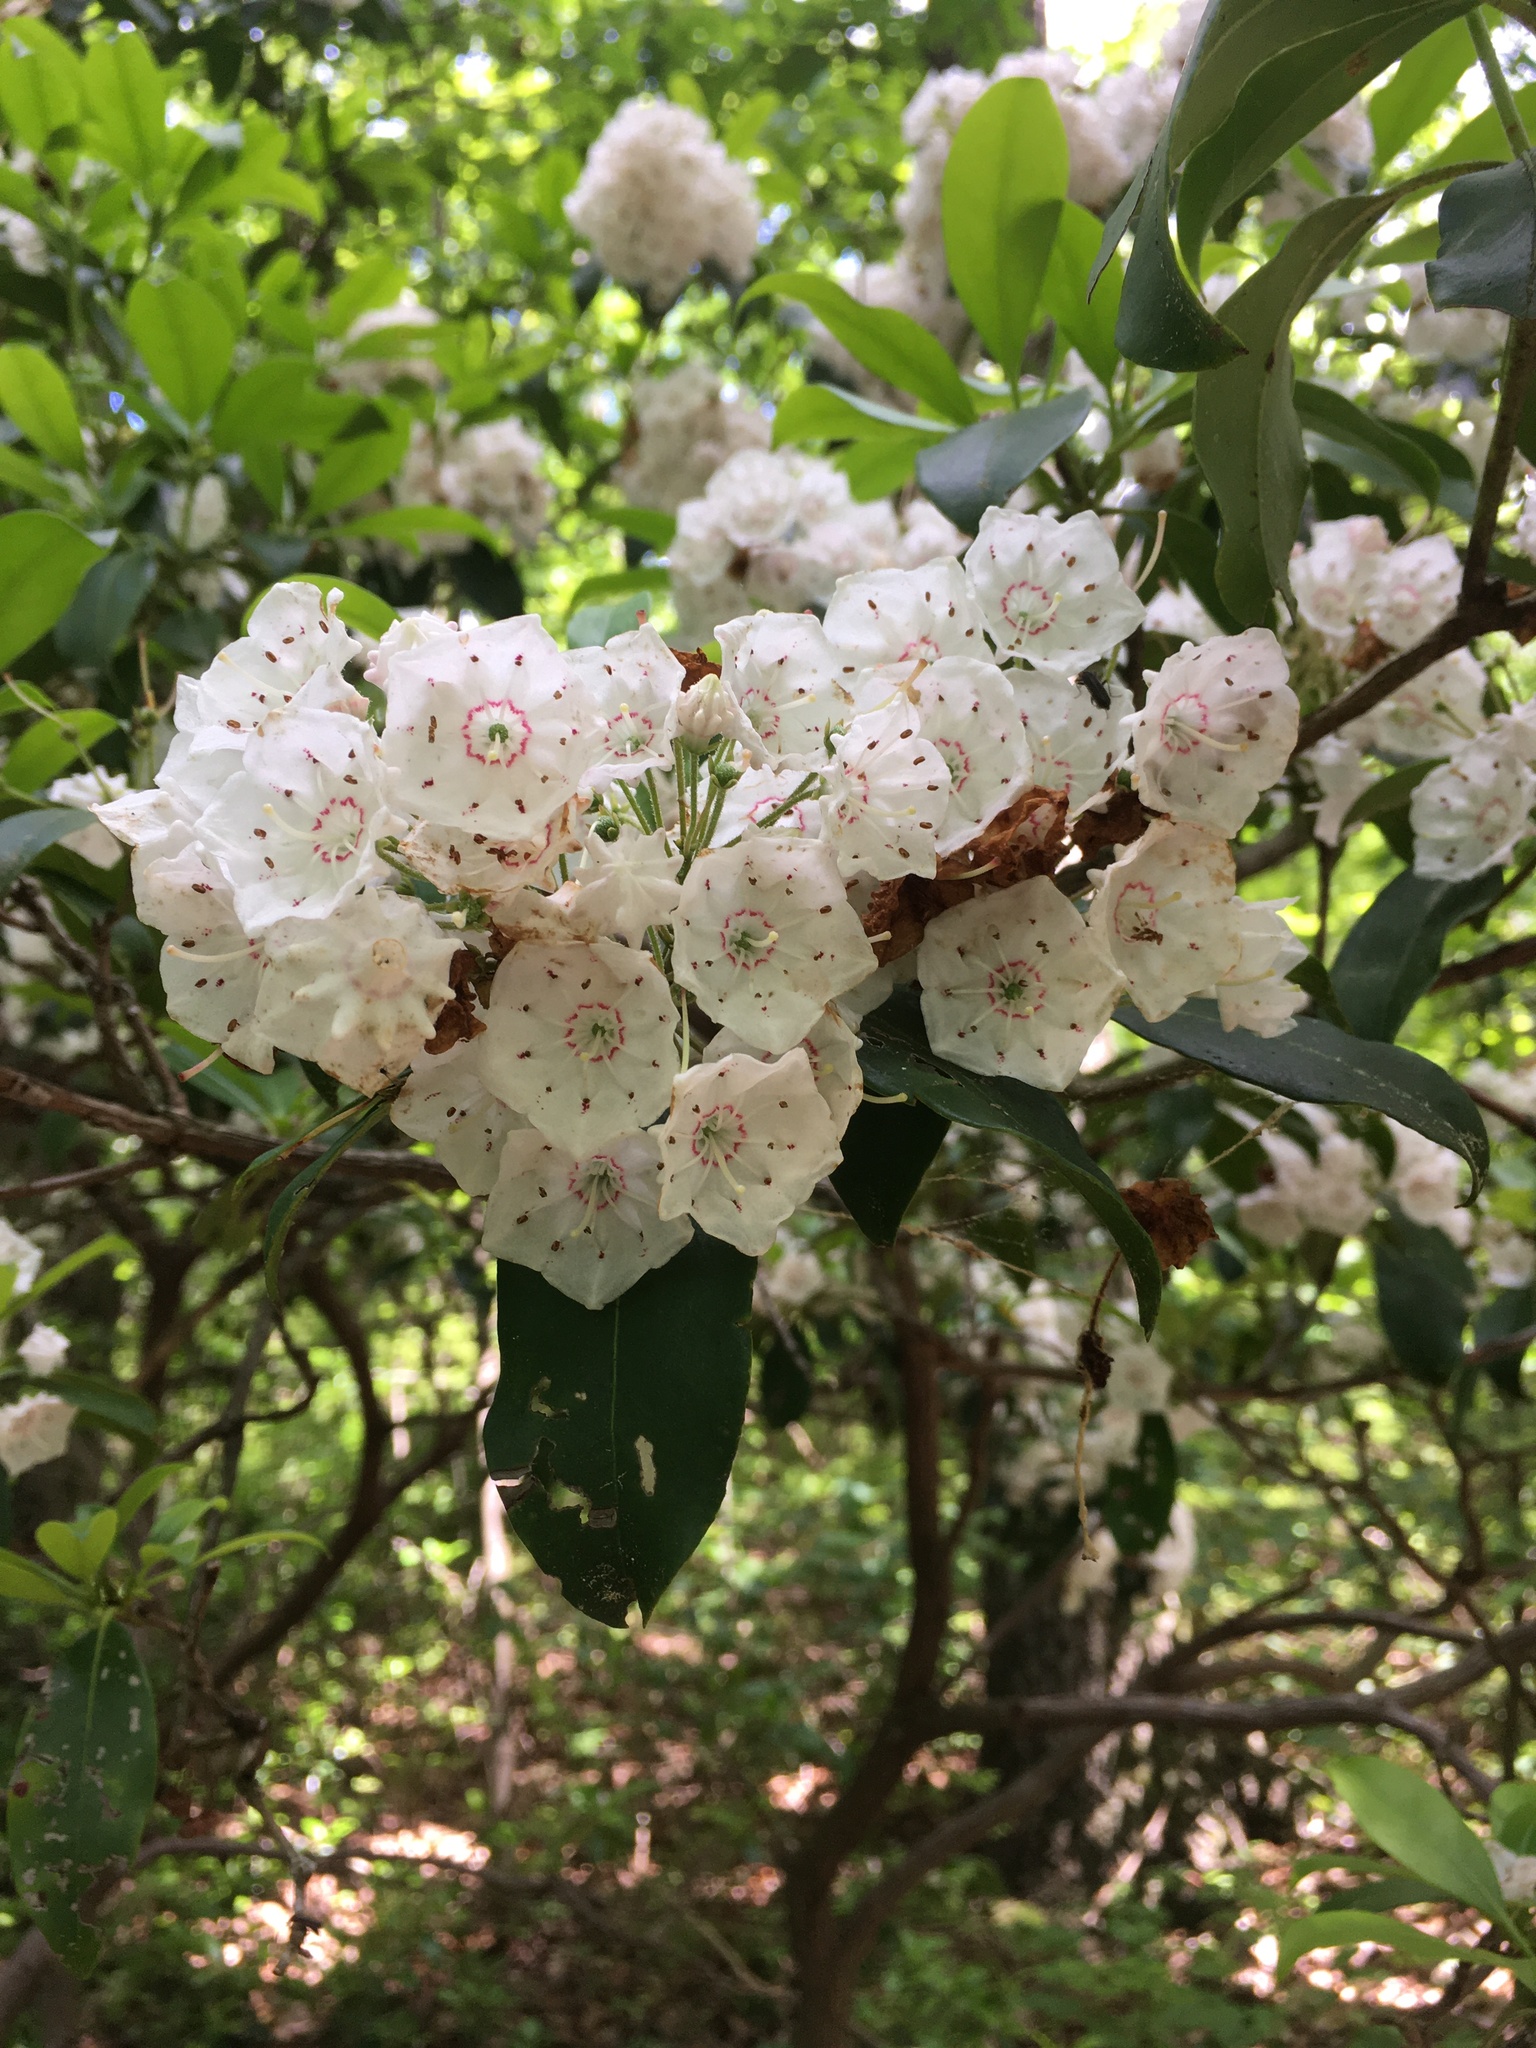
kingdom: Plantae
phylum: Tracheophyta
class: Magnoliopsida
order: Ericales
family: Ericaceae
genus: Kalmia
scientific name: Kalmia latifolia
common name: Mountain-laurel
